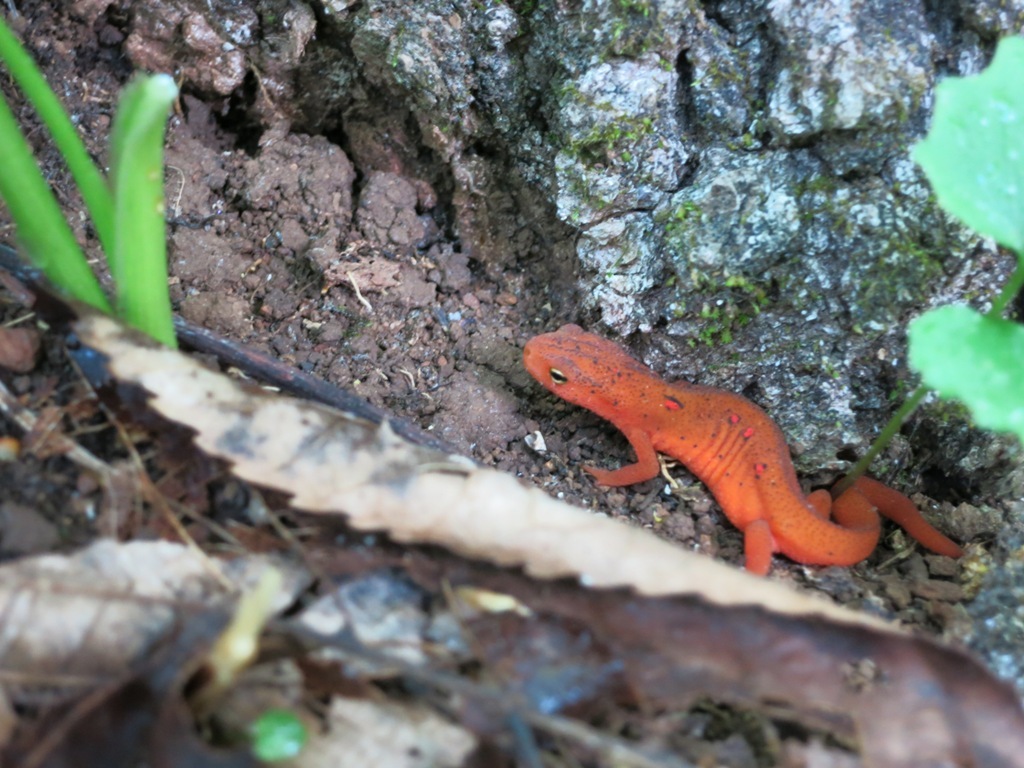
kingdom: Animalia
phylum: Chordata
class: Amphibia
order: Caudata
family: Salamandridae
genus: Notophthalmus
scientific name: Notophthalmus viridescens
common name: Eastern newt
